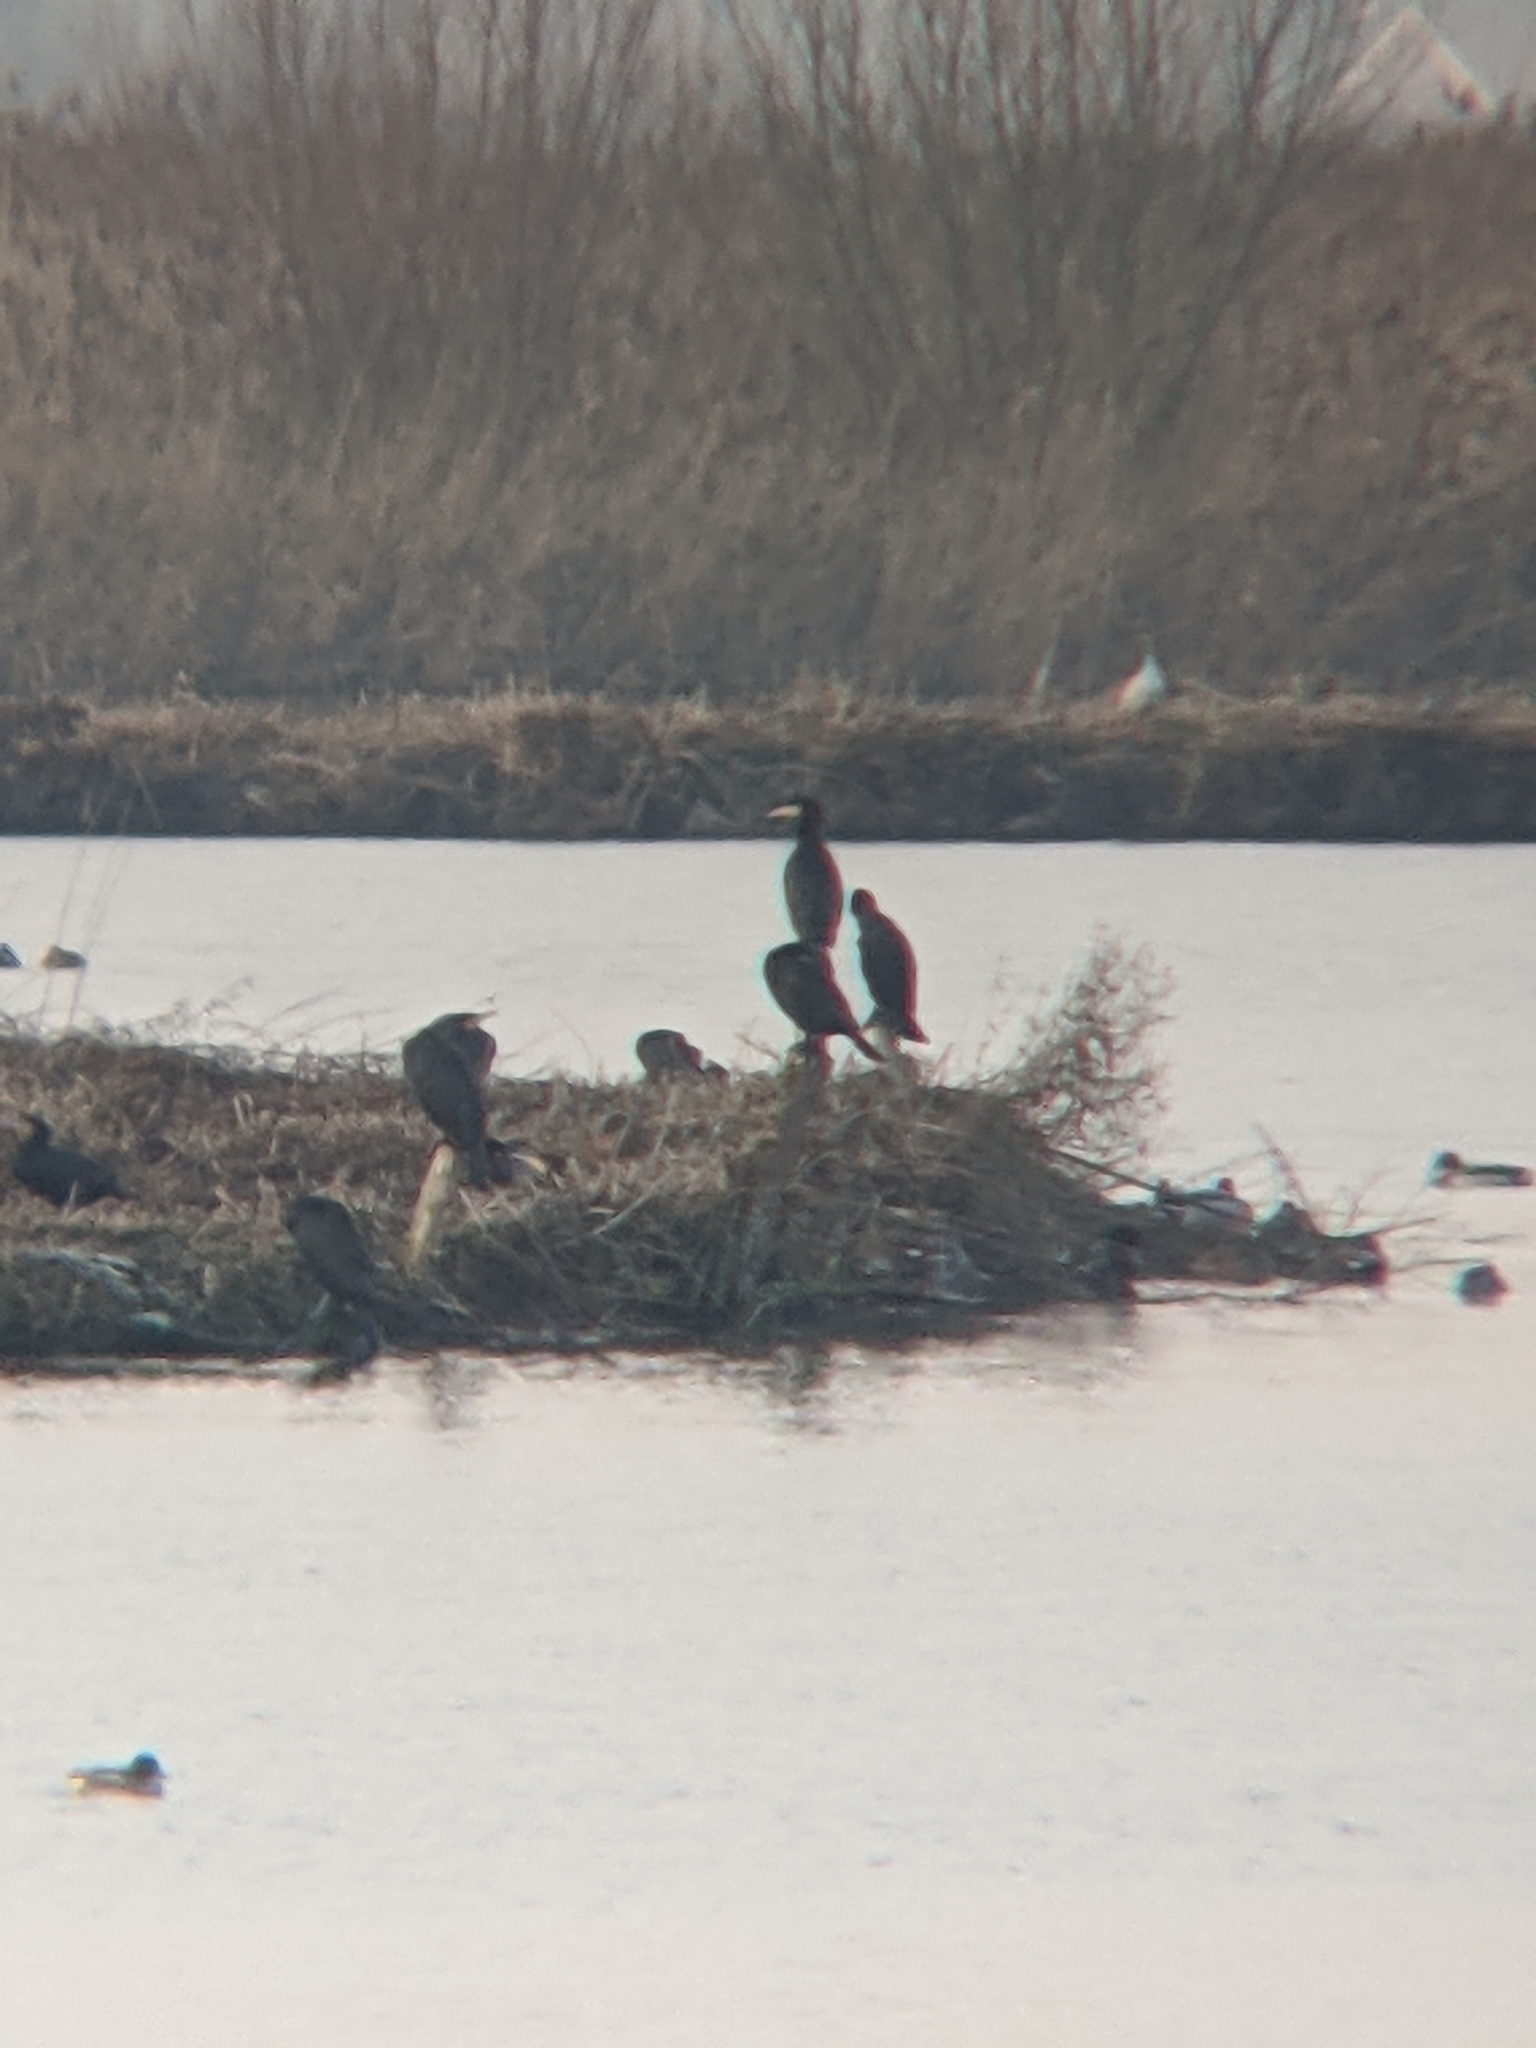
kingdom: Animalia
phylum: Chordata
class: Aves
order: Suliformes
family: Phalacrocoracidae
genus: Phalacrocorax
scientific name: Phalacrocorax carbo
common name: Great cormorant
